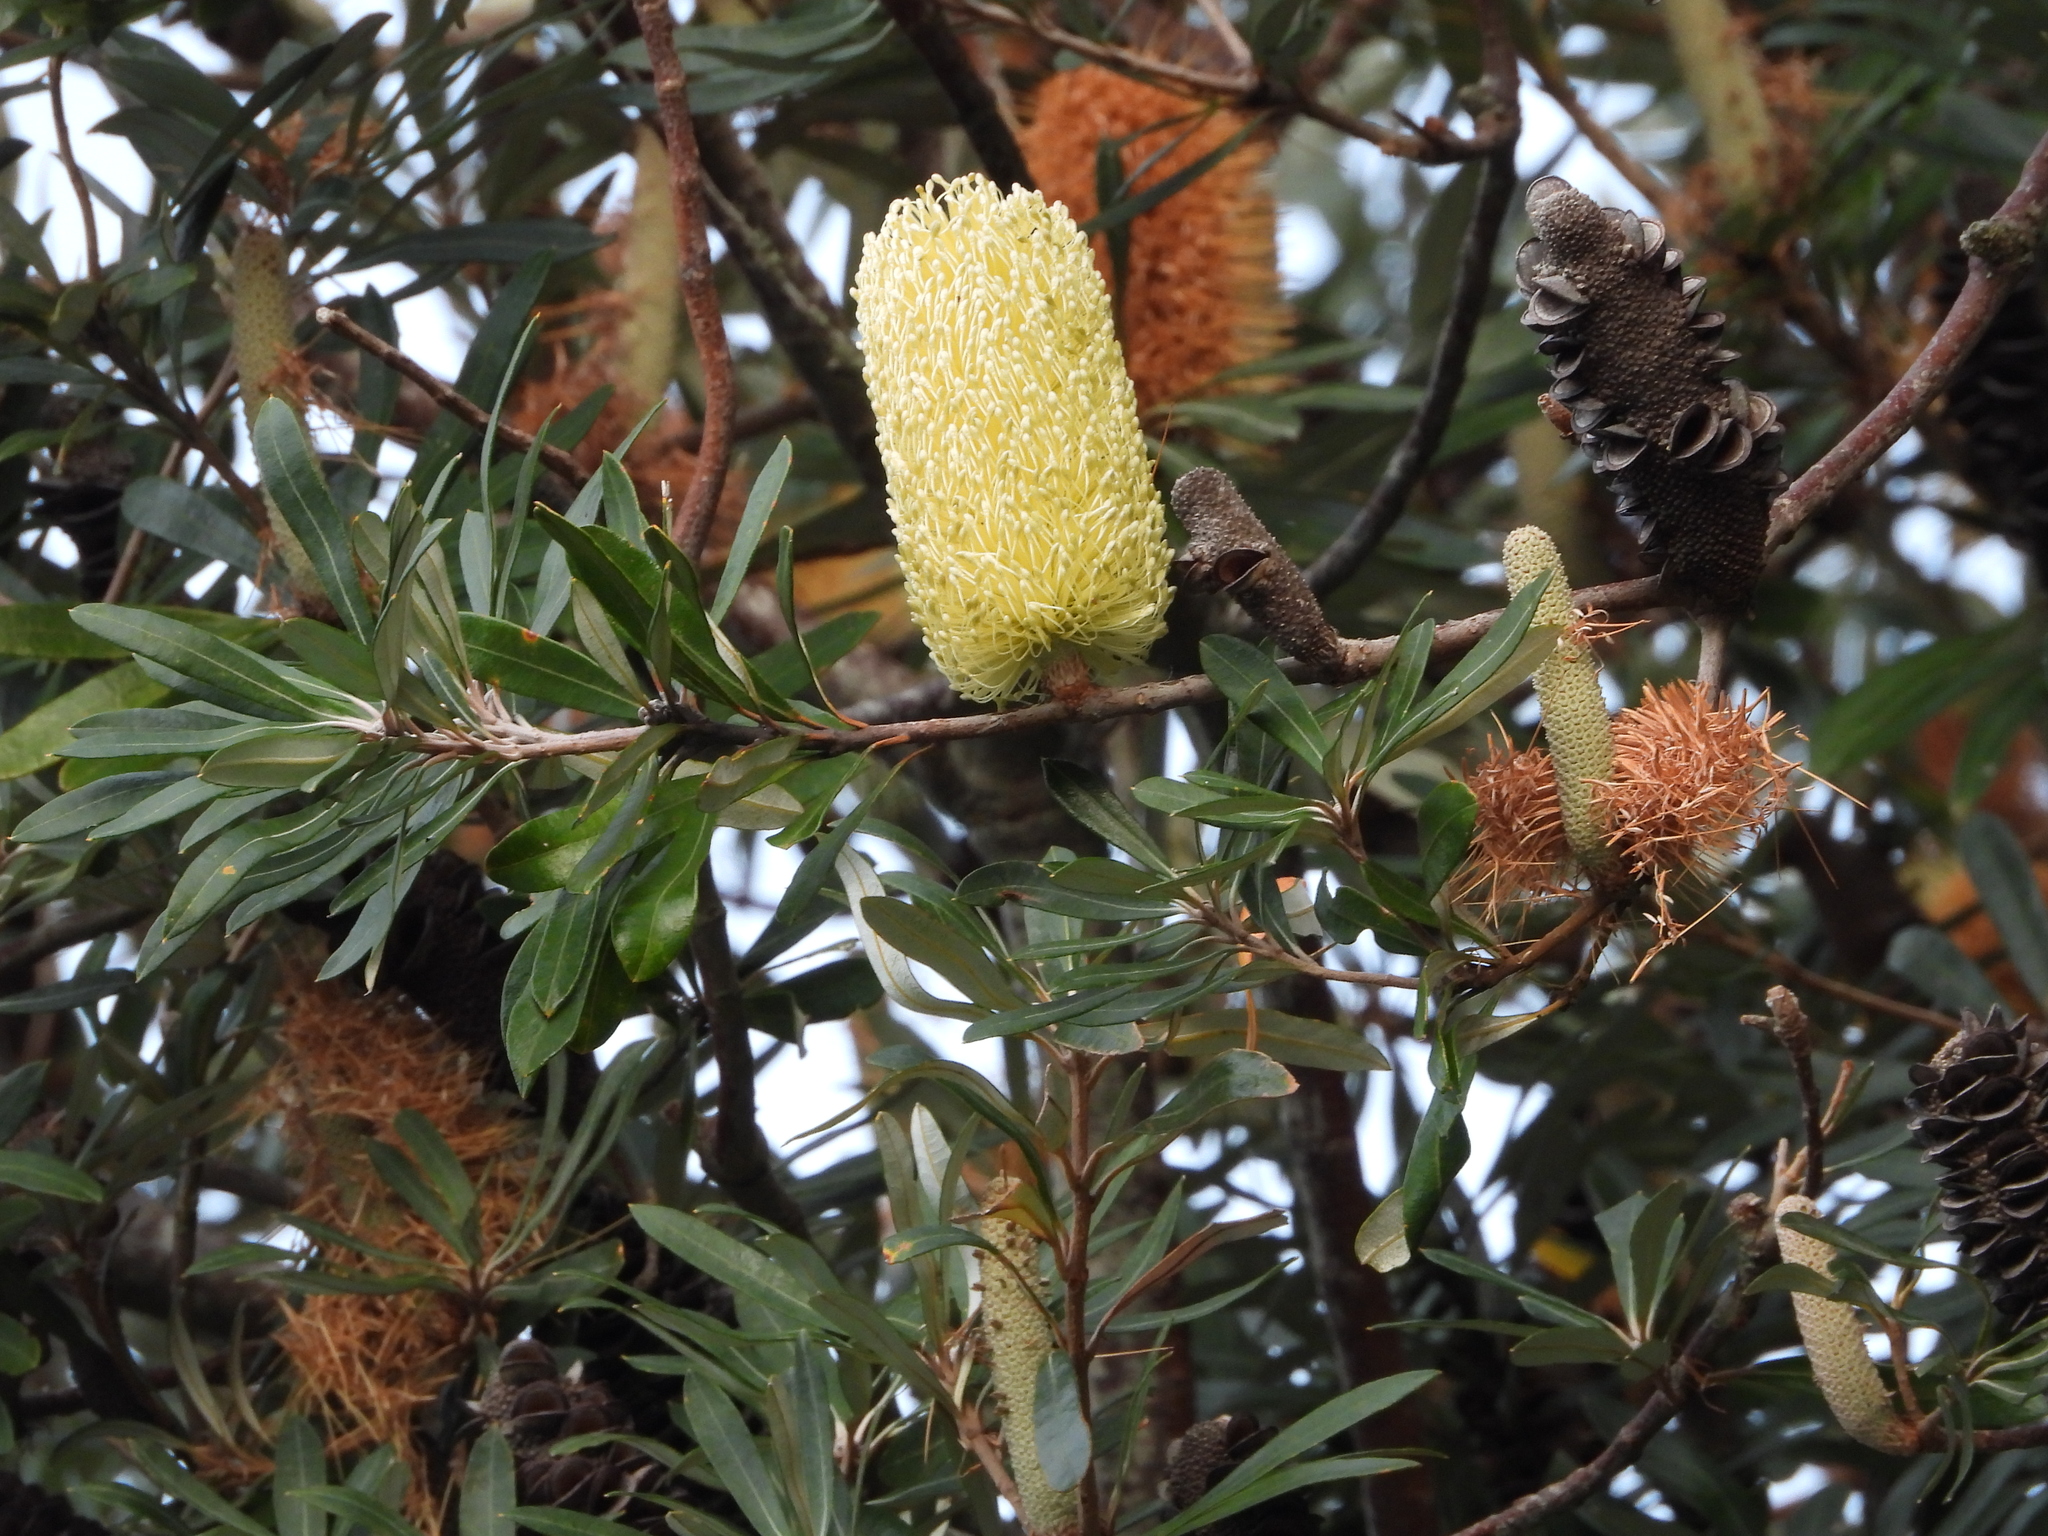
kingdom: Plantae
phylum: Tracheophyta
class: Magnoliopsida
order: Proteales
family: Proteaceae
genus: Banksia
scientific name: Banksia integrifolia
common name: White-honeysuckle
